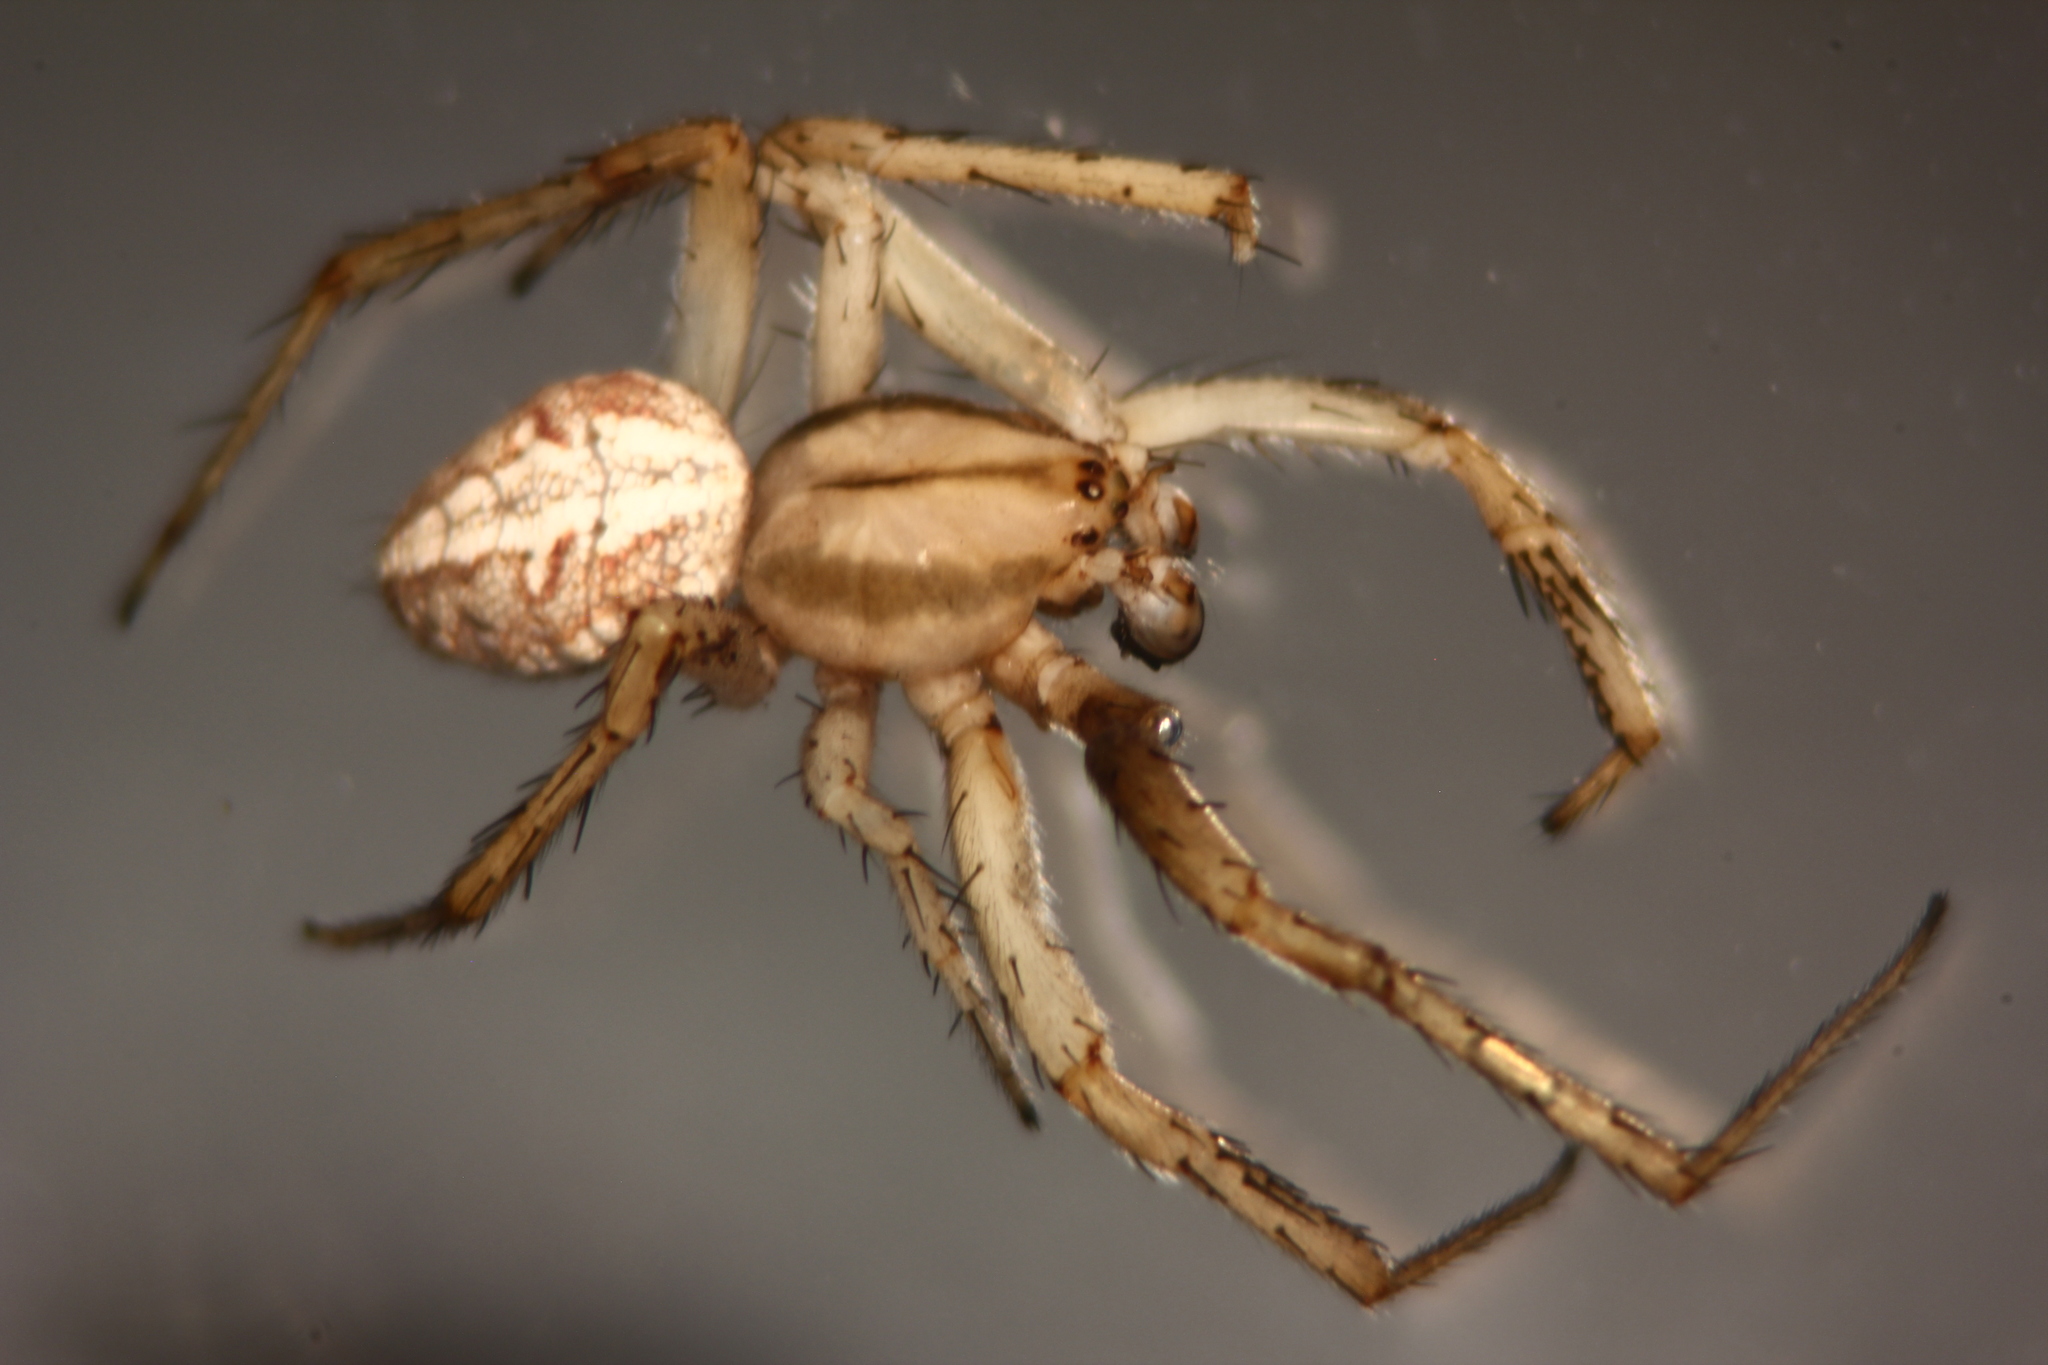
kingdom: Animalia
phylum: Arthropoda
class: Arachnida
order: Araneae
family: Araneidae
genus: Neoscona
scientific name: Neoscona adianta
